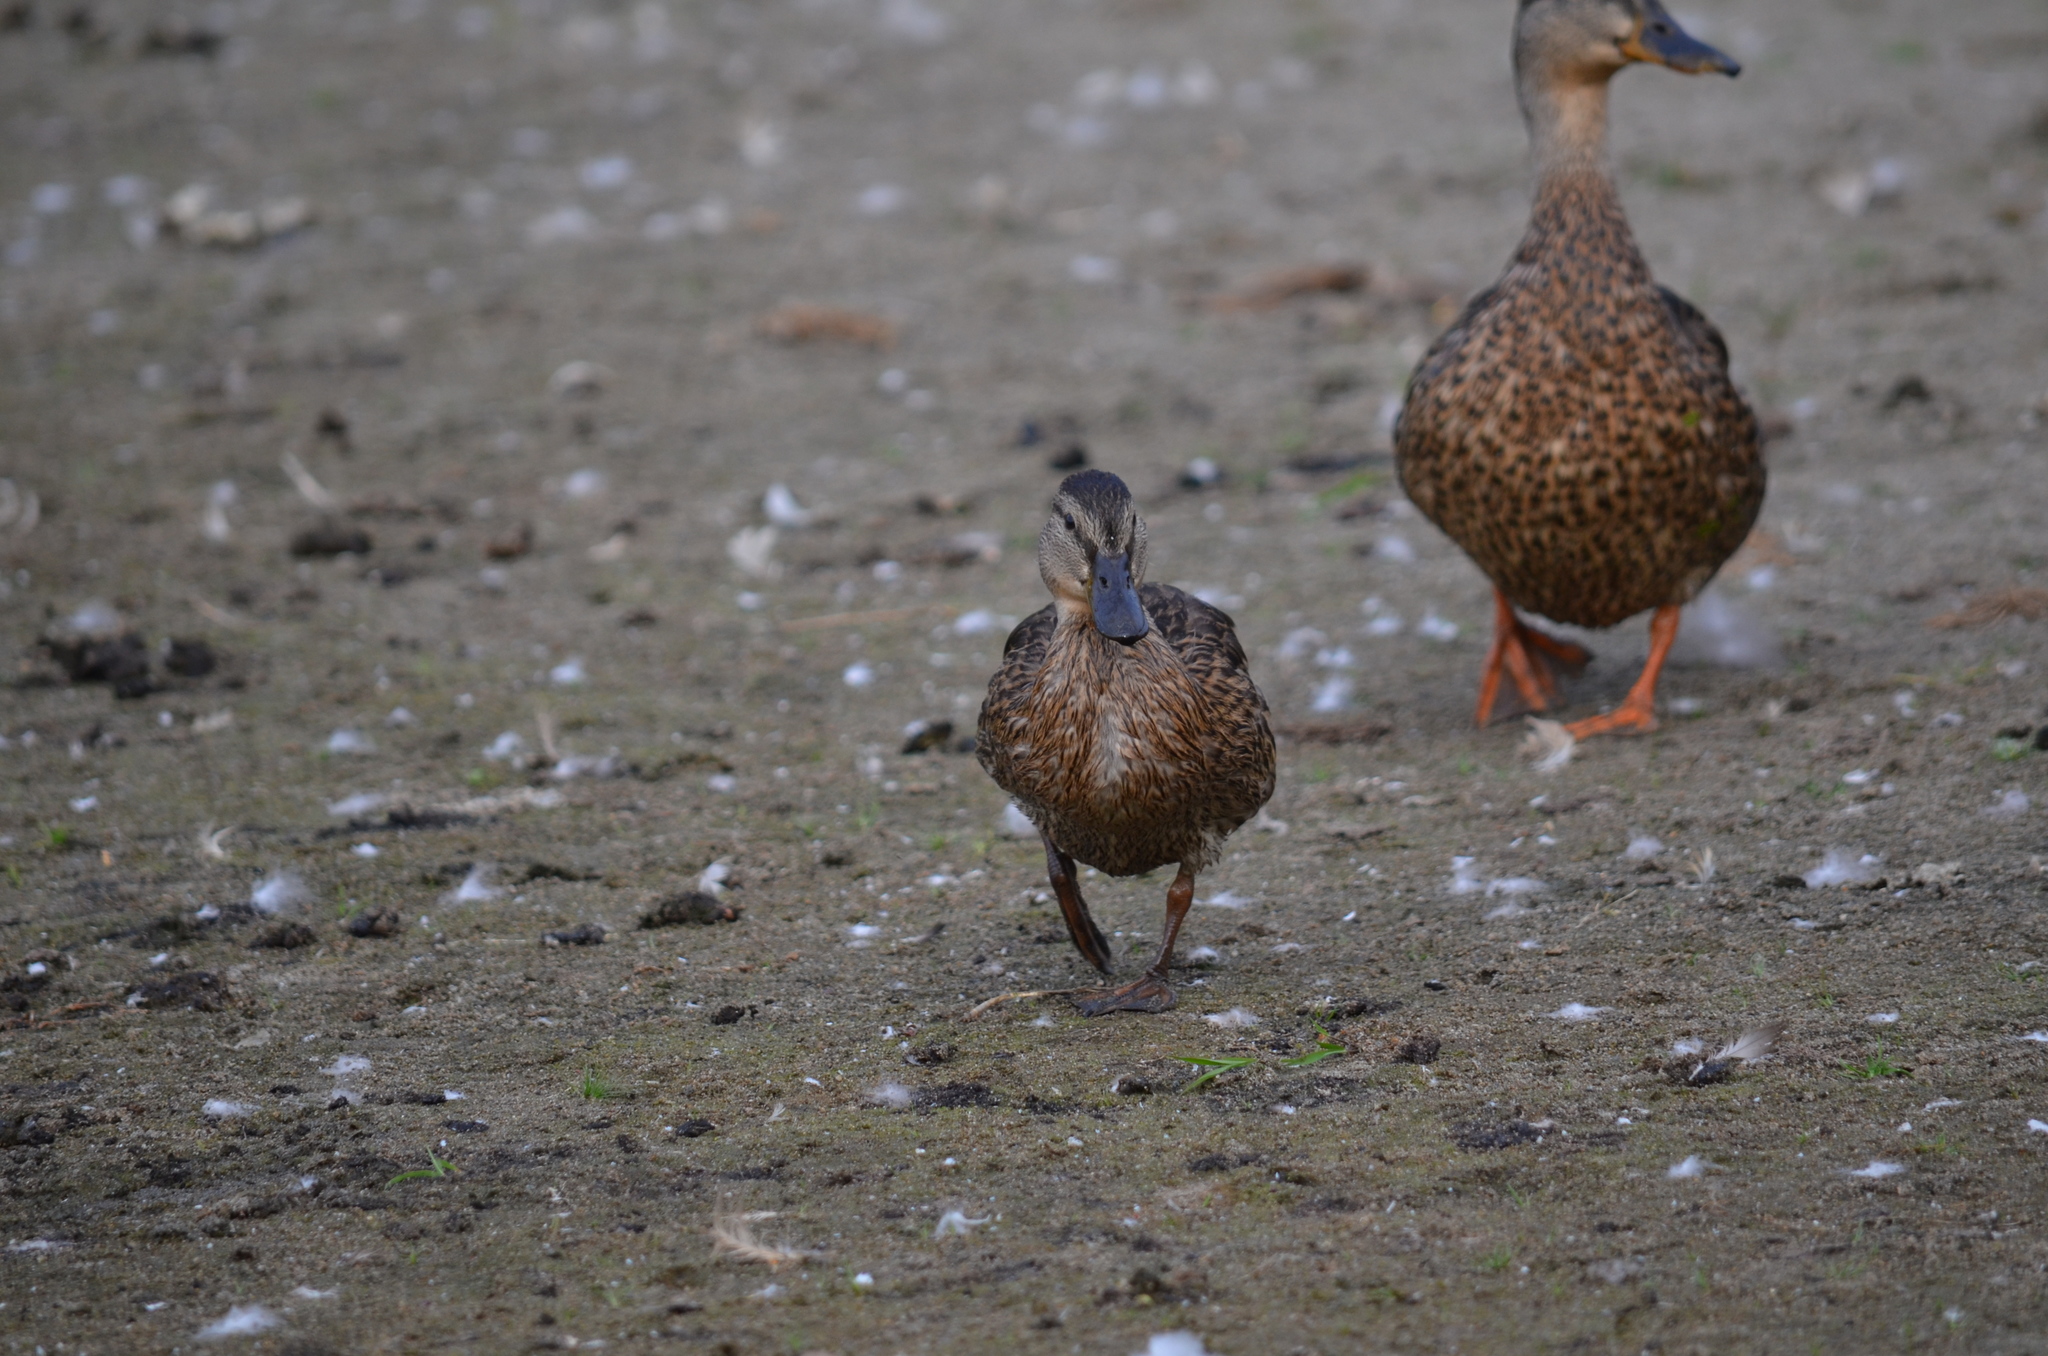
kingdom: Animalia
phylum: Chordata
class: Aves
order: Anseriformes
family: Anatidae
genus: Anas
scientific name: Anas platyrhynchos
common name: Mallard
